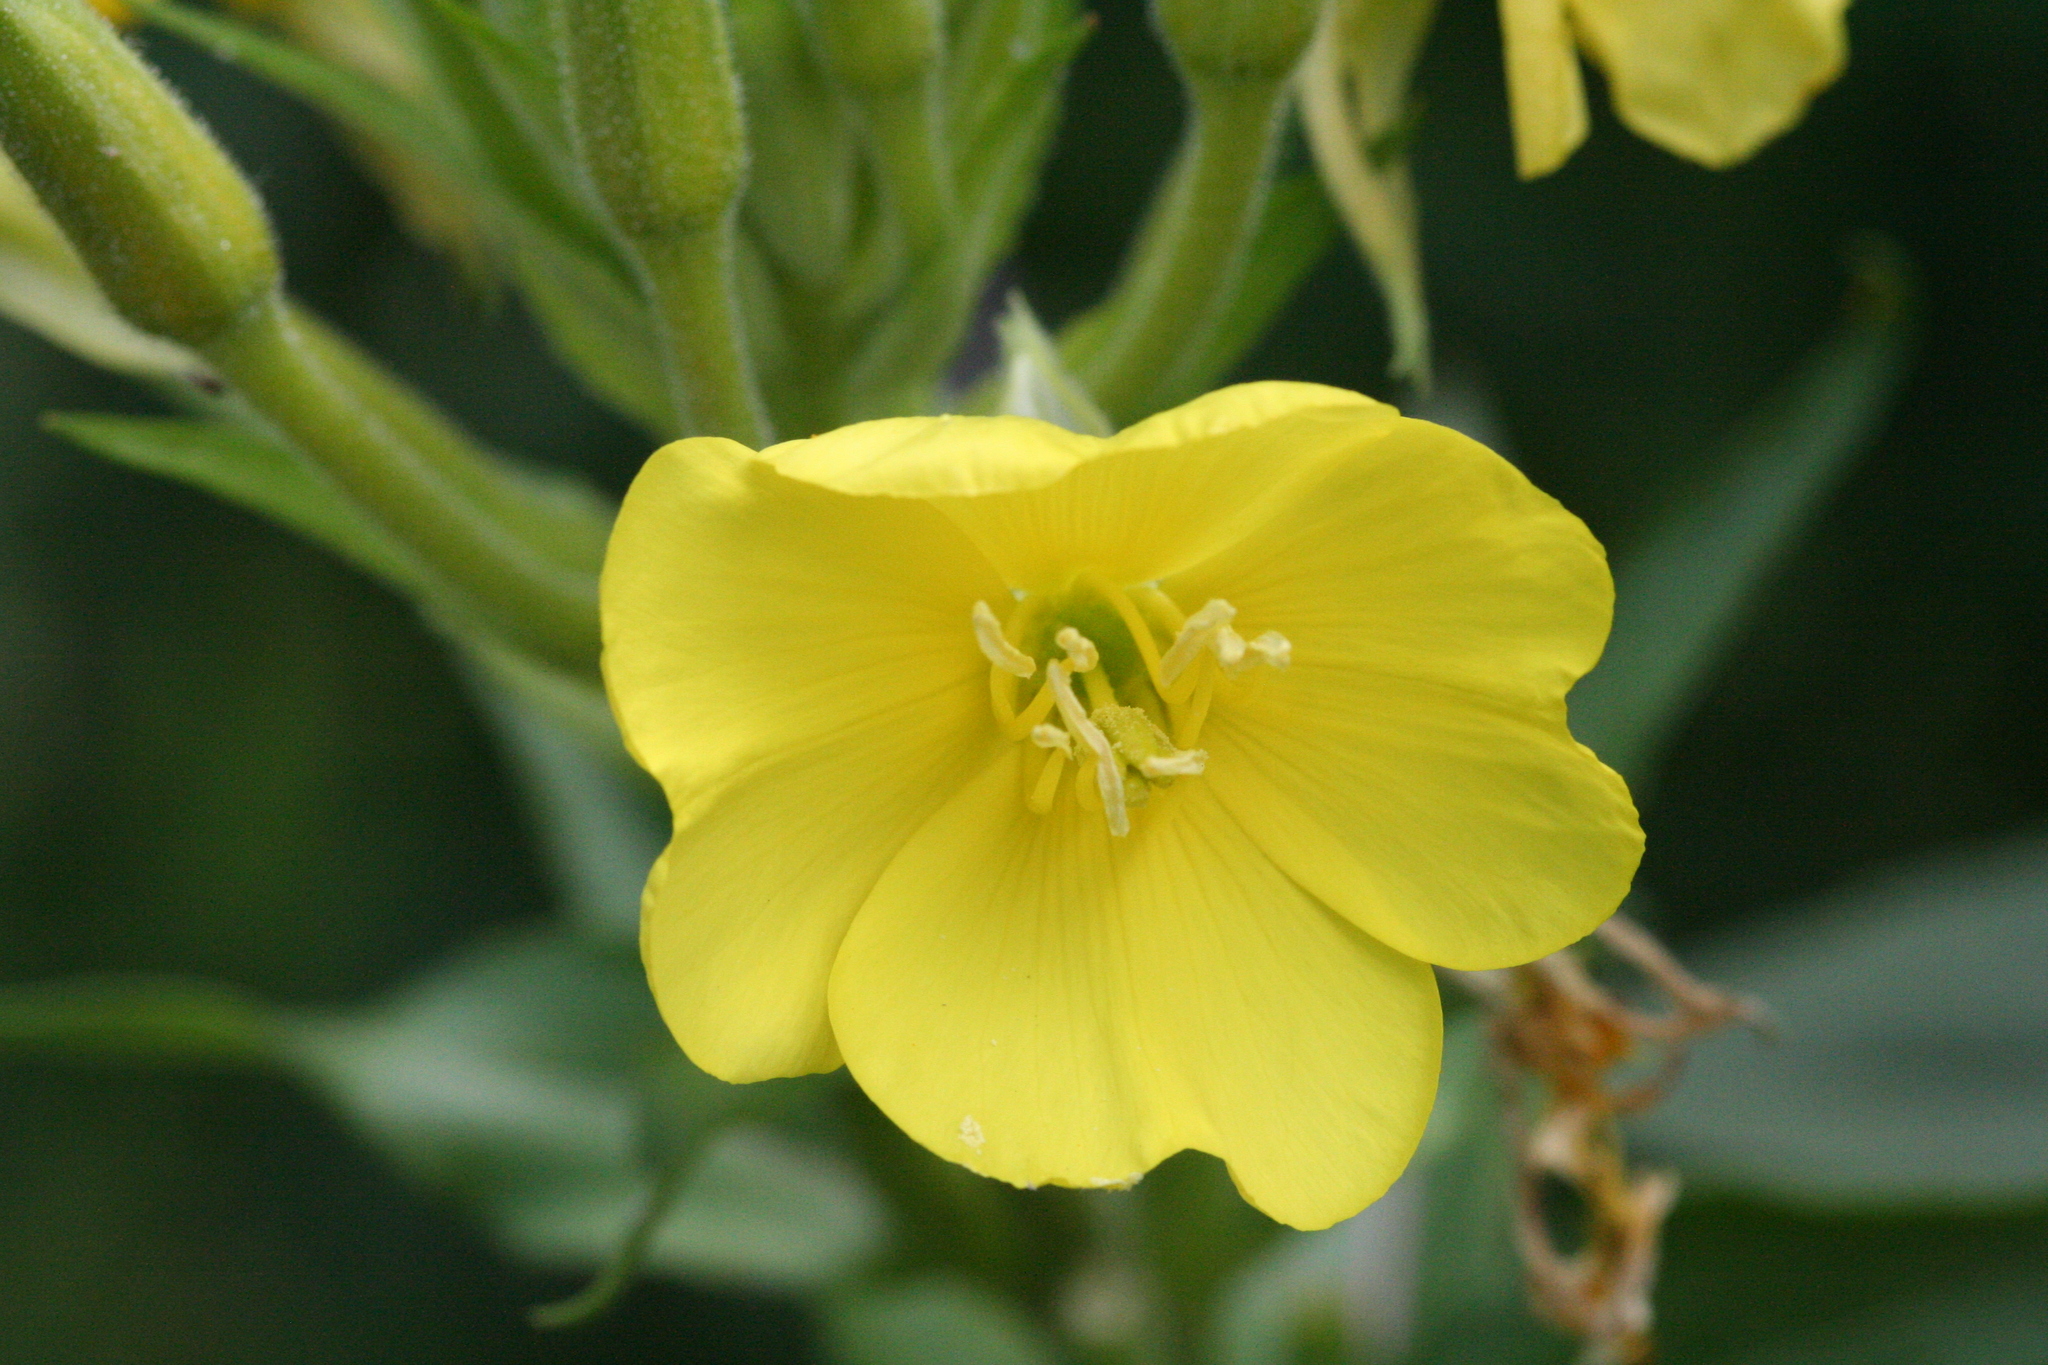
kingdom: Plantae
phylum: Tracheophyta
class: Magnoliopsida
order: Myrtales
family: Onagraceae
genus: Oenothera
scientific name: Oenothera biennis
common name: Common evening-primrose
